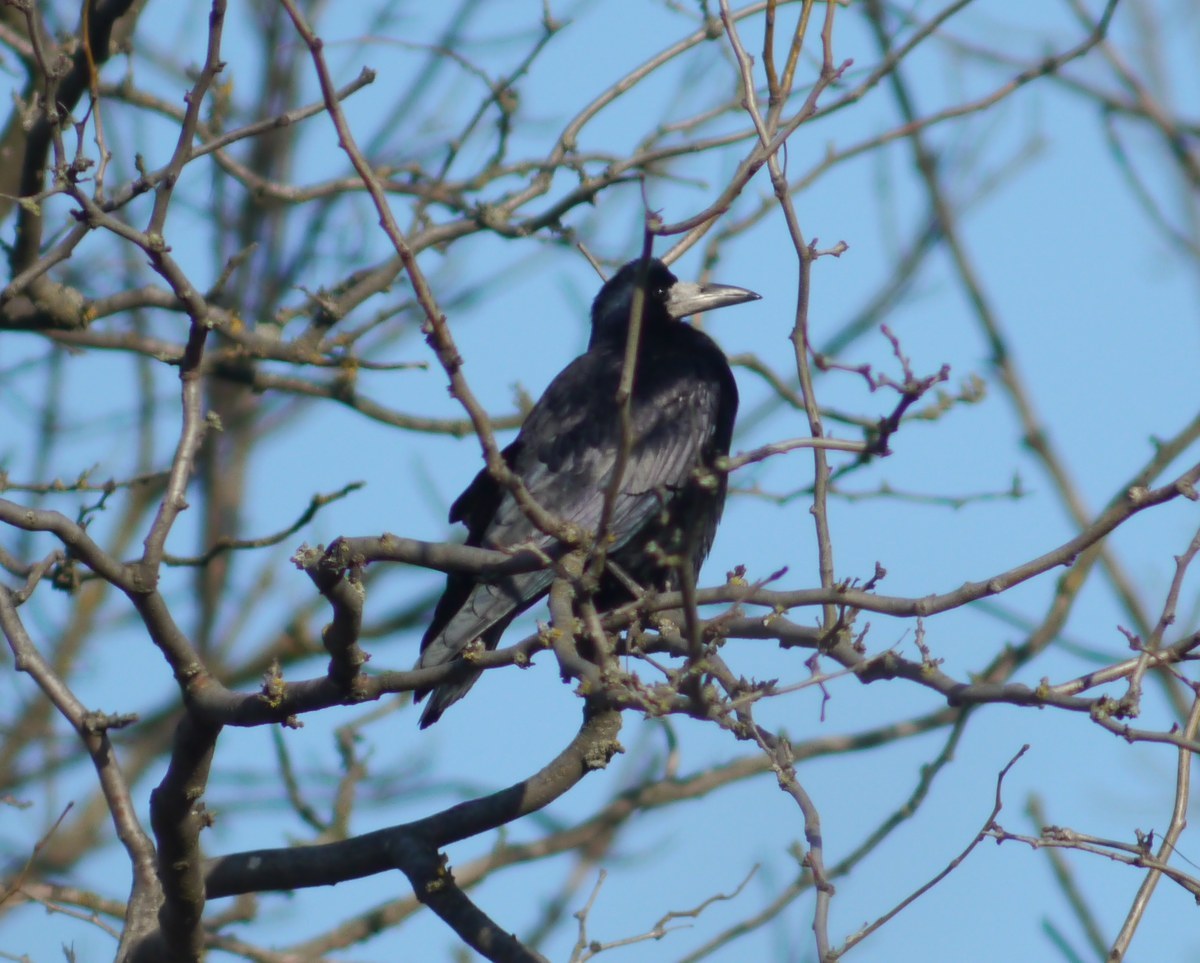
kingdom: Animalia
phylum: Chordata
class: Aves
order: Passeriformes
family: Corvidae
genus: Corvus
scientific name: Corvus frugilegus
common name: Rook
